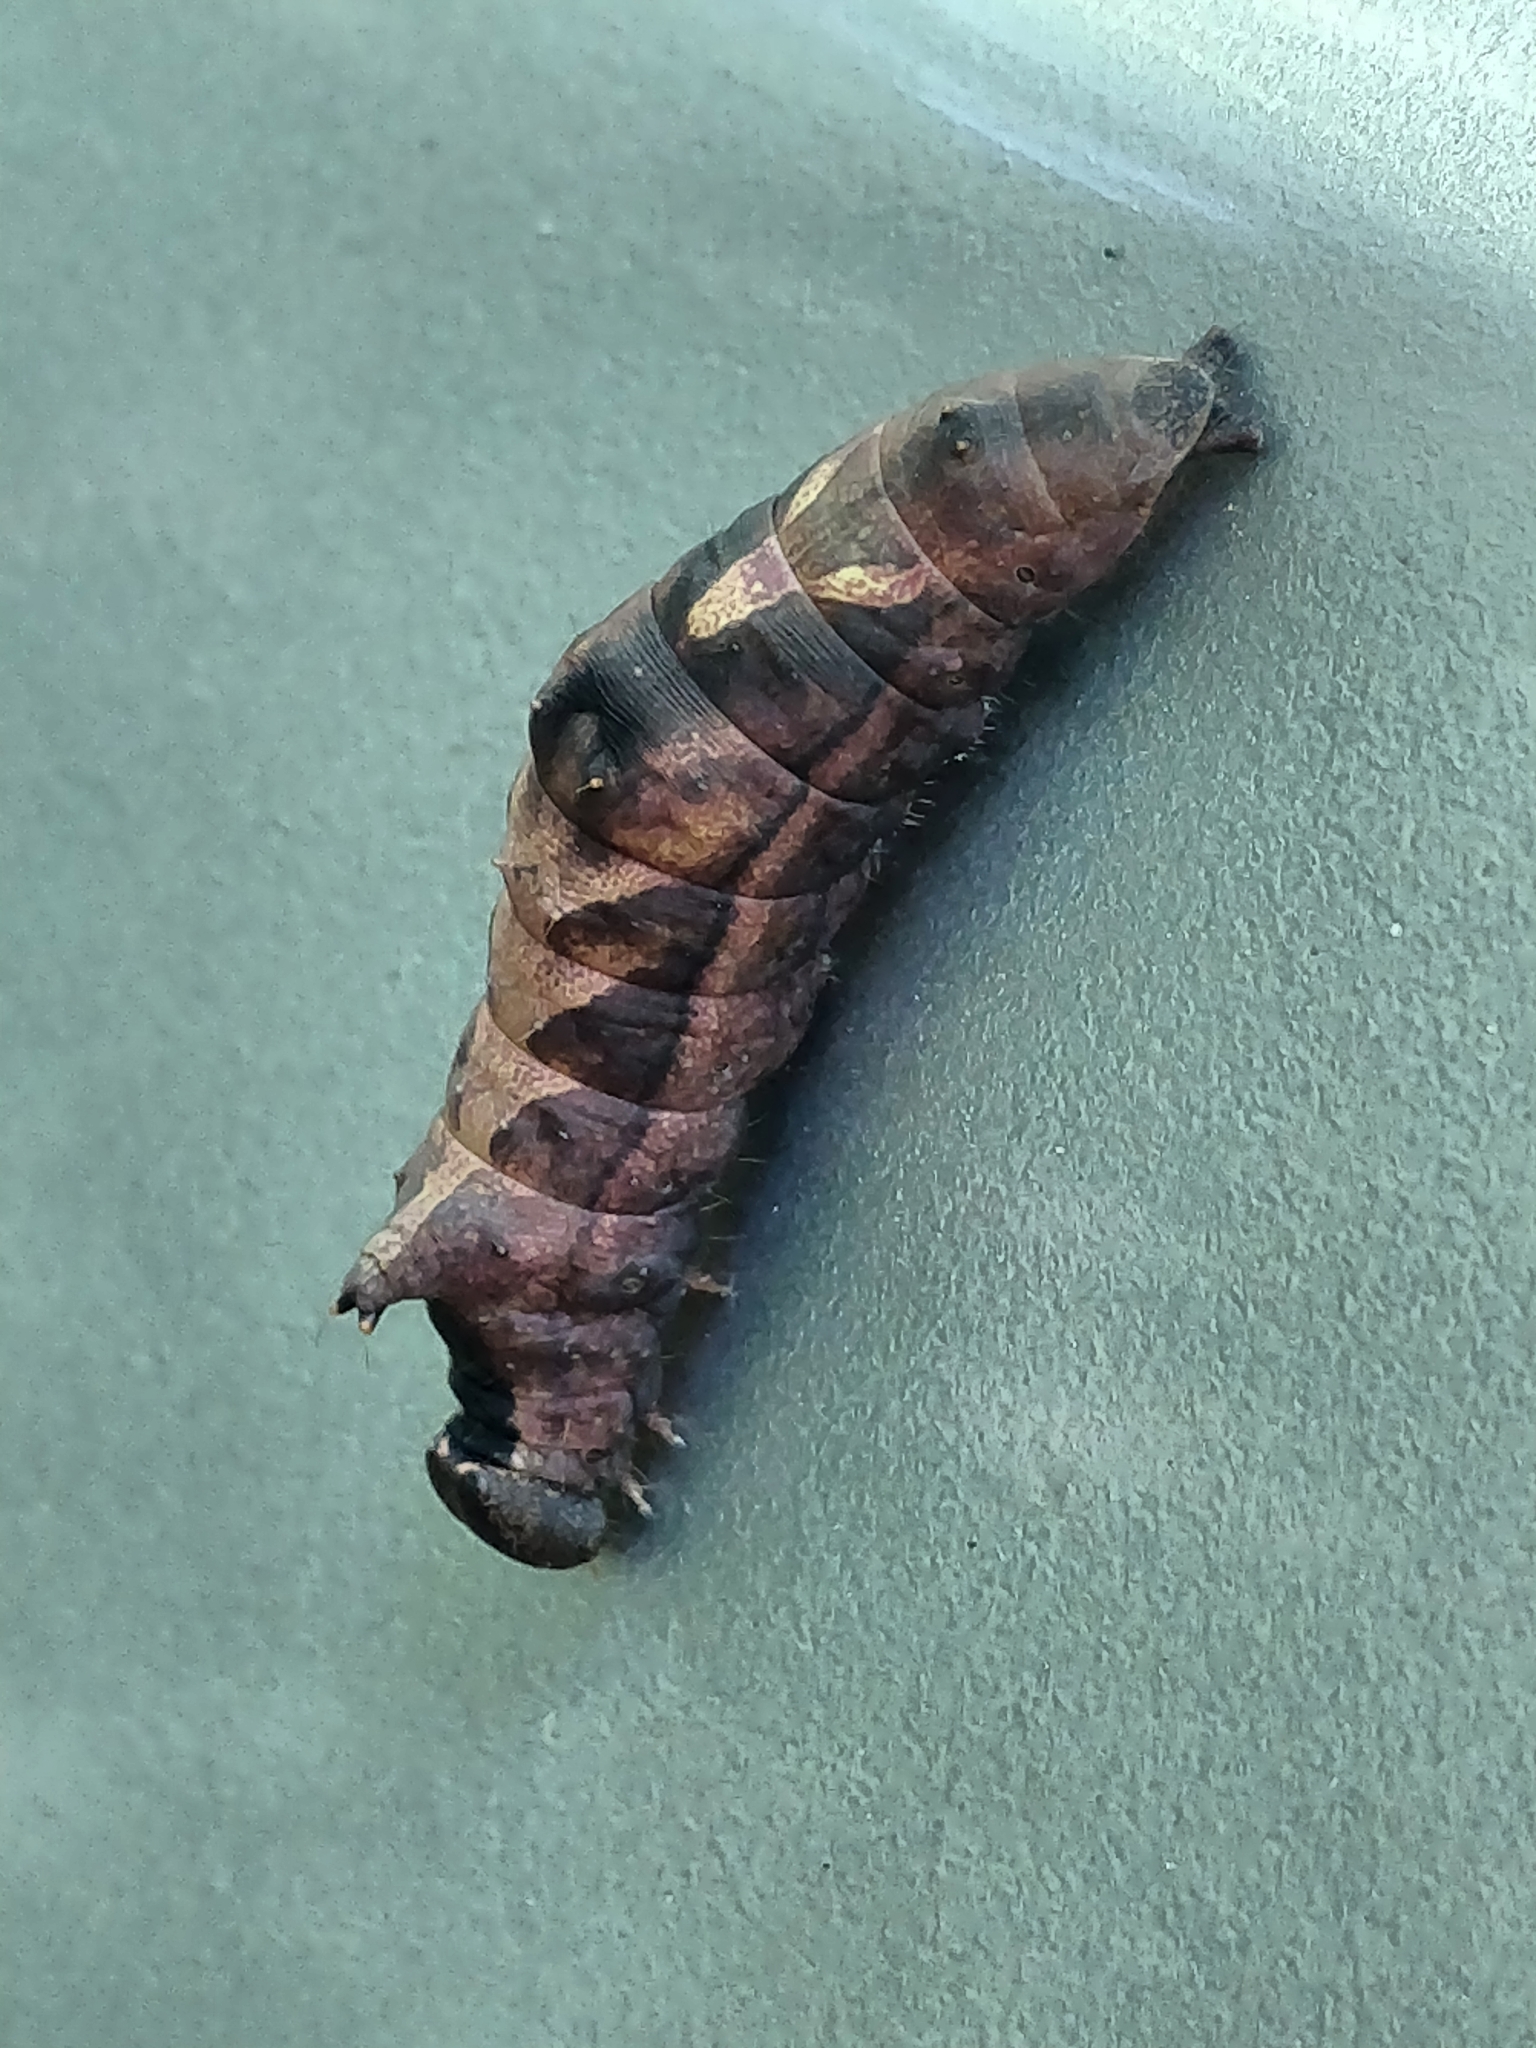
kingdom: Animalia
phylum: Arthropoda
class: Insecta
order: Lepidoptera
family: Notodontidae
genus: Schizura
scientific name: Schizura
